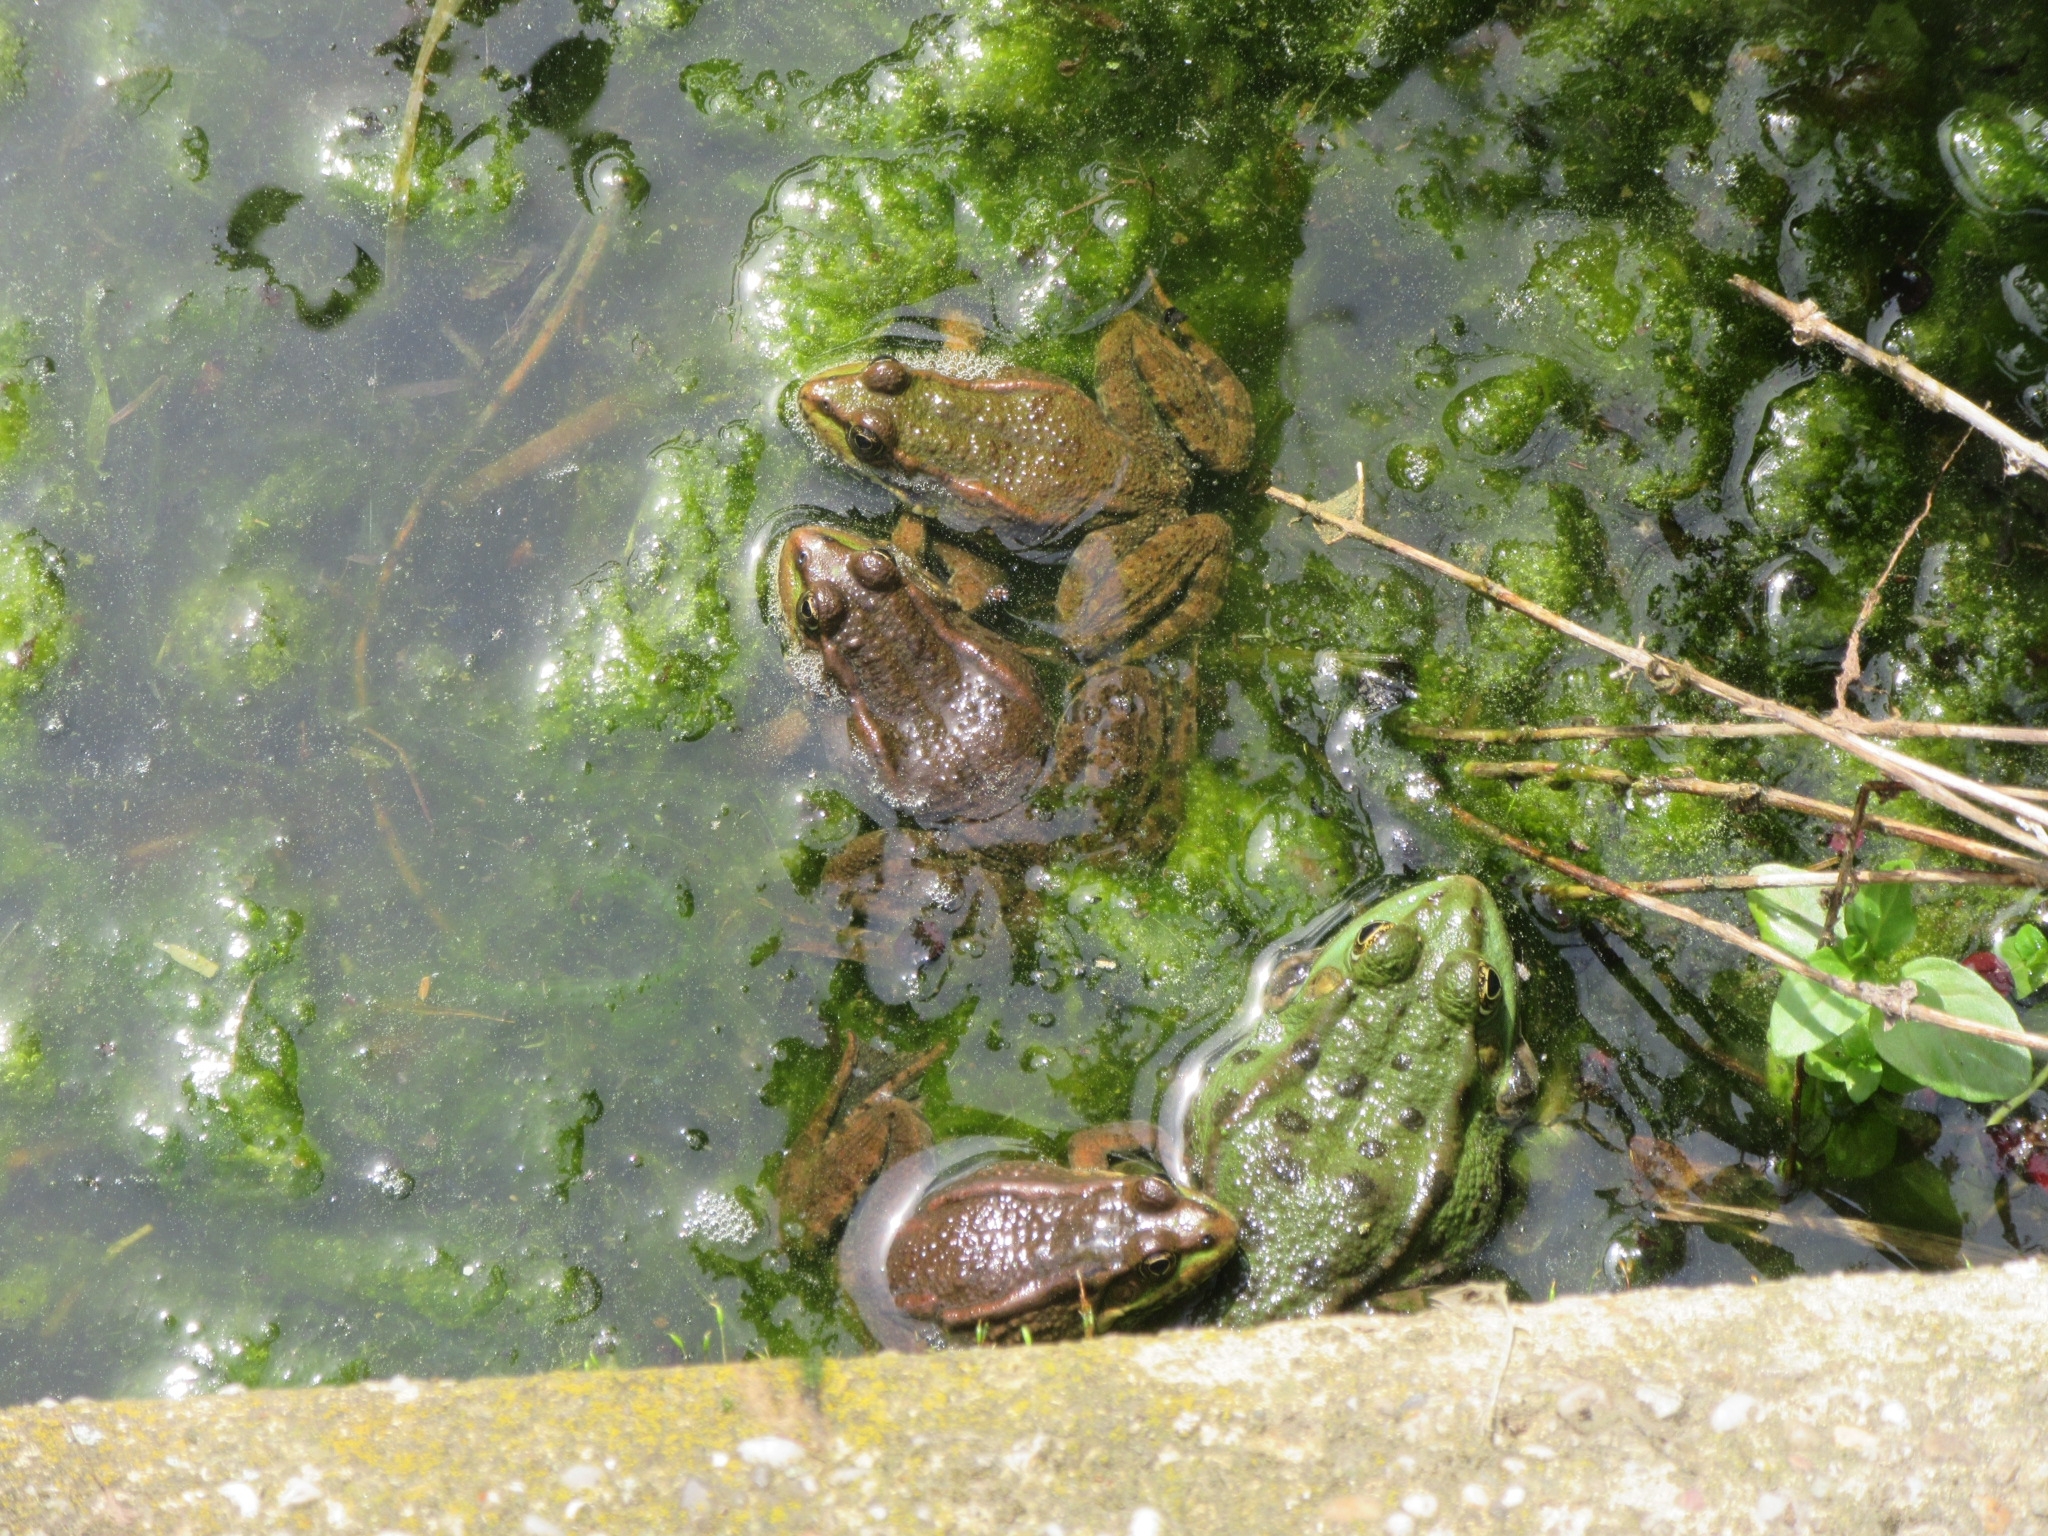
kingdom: Animalia
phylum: Chordata
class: Amphibia
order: Anura
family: Ranidae
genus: Pelophylax
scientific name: Pelophylax
